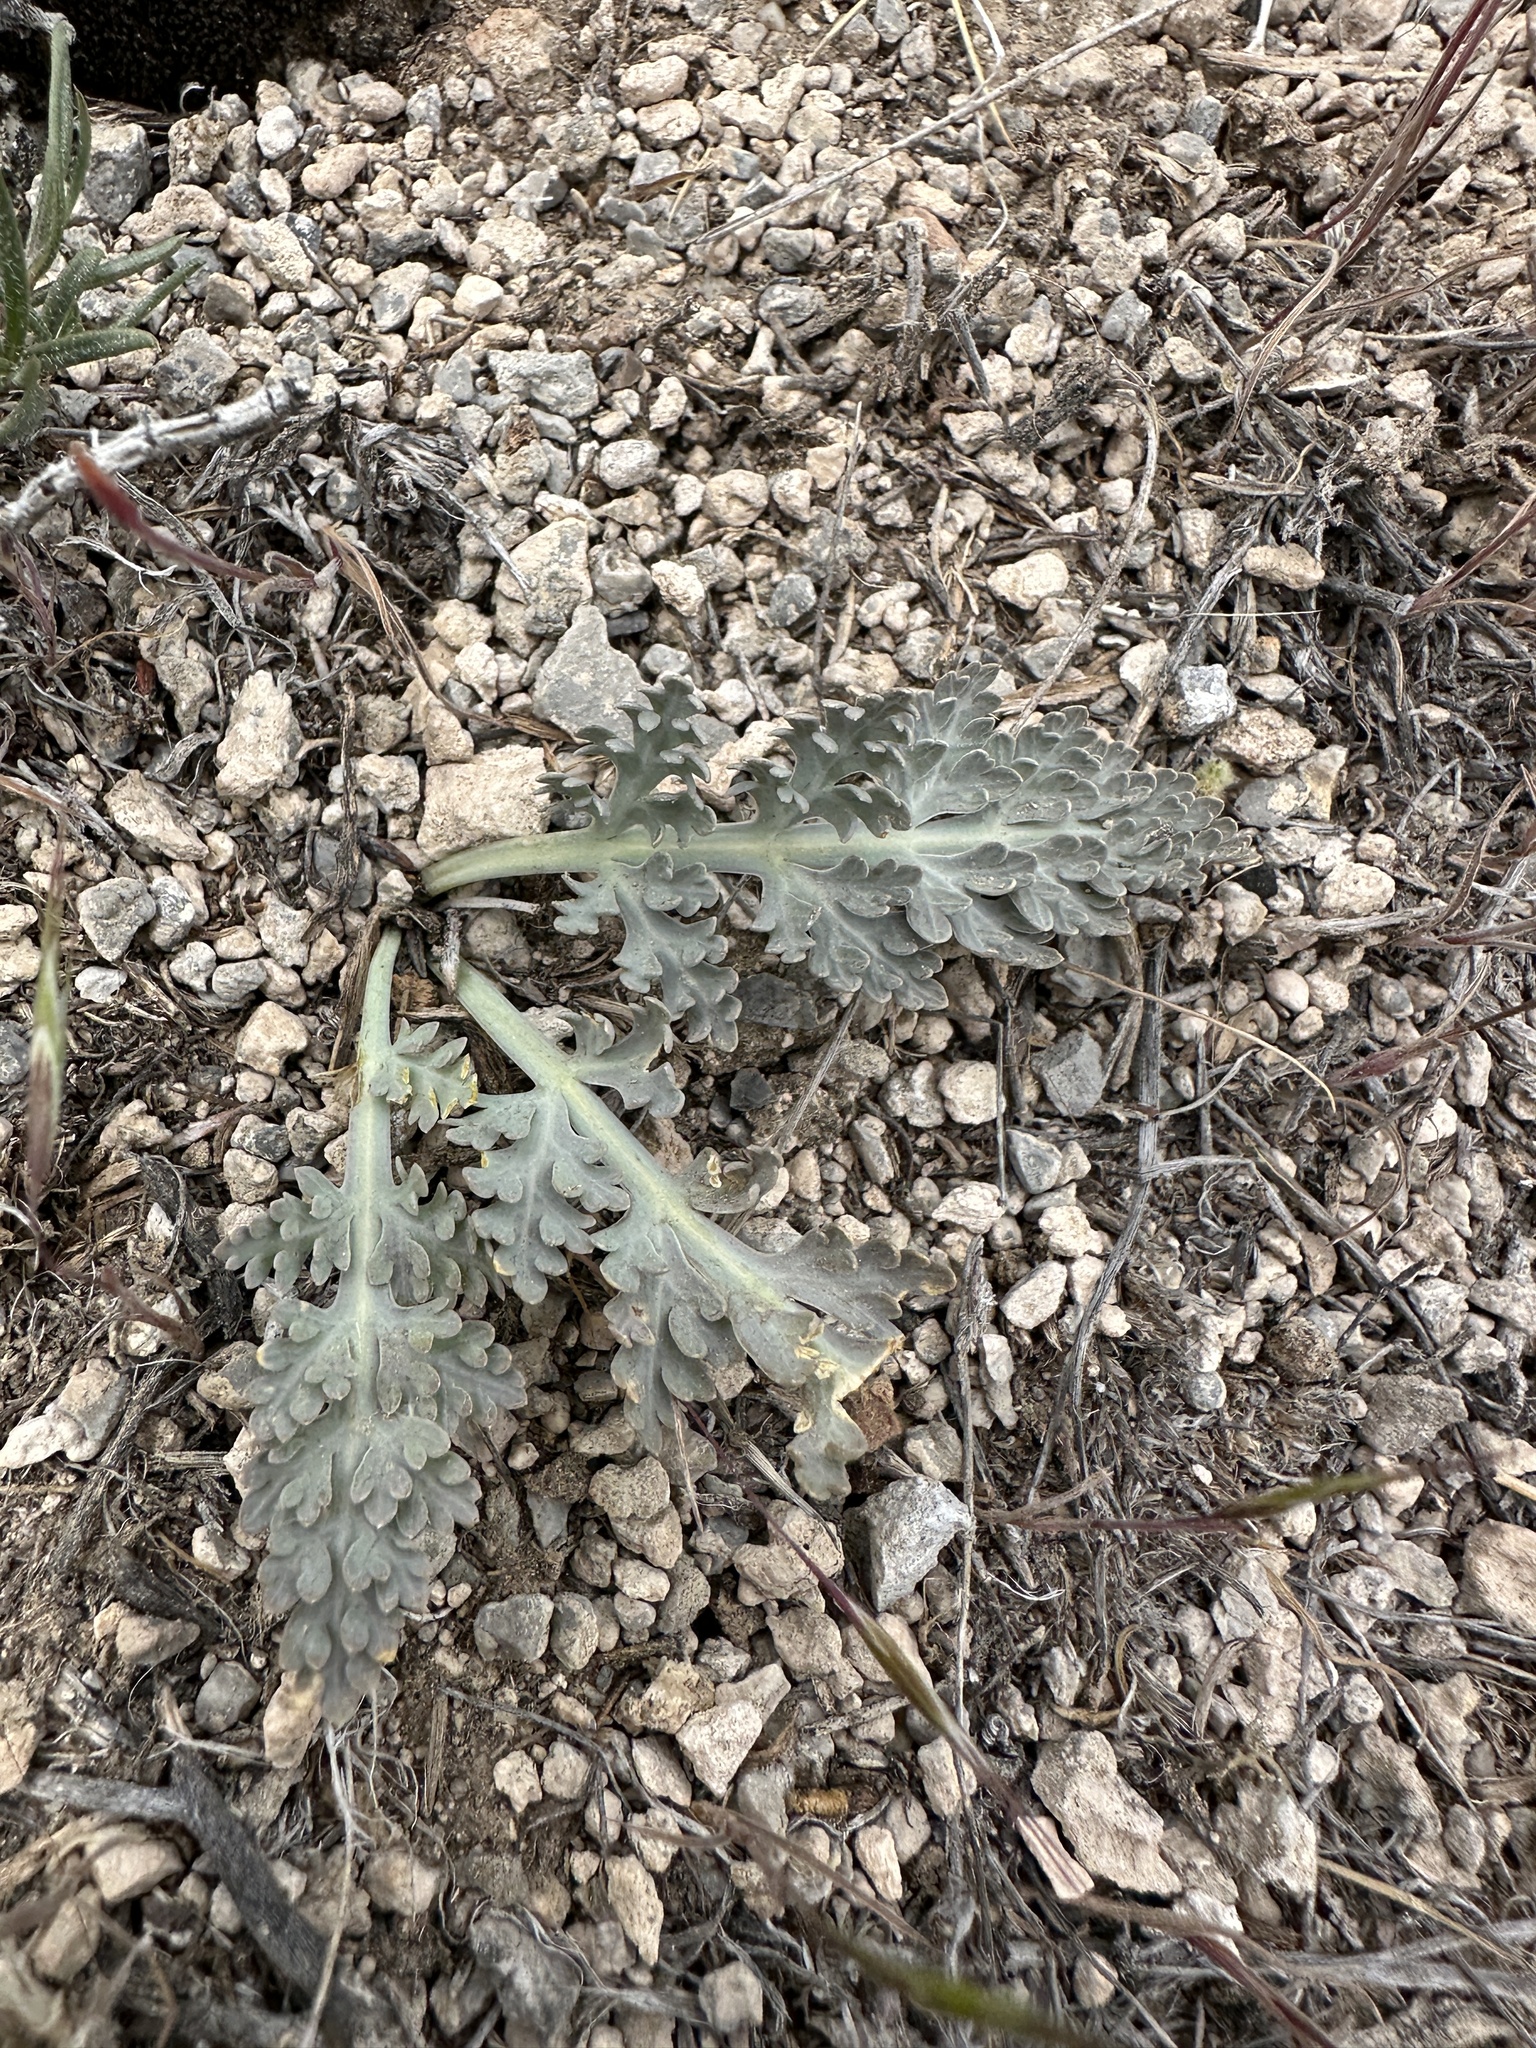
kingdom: Plantae
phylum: Tracheophyta
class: Magnoliopsida
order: Apiales
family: Apiaceae
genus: Vesper
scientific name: Vesper purpurascens
